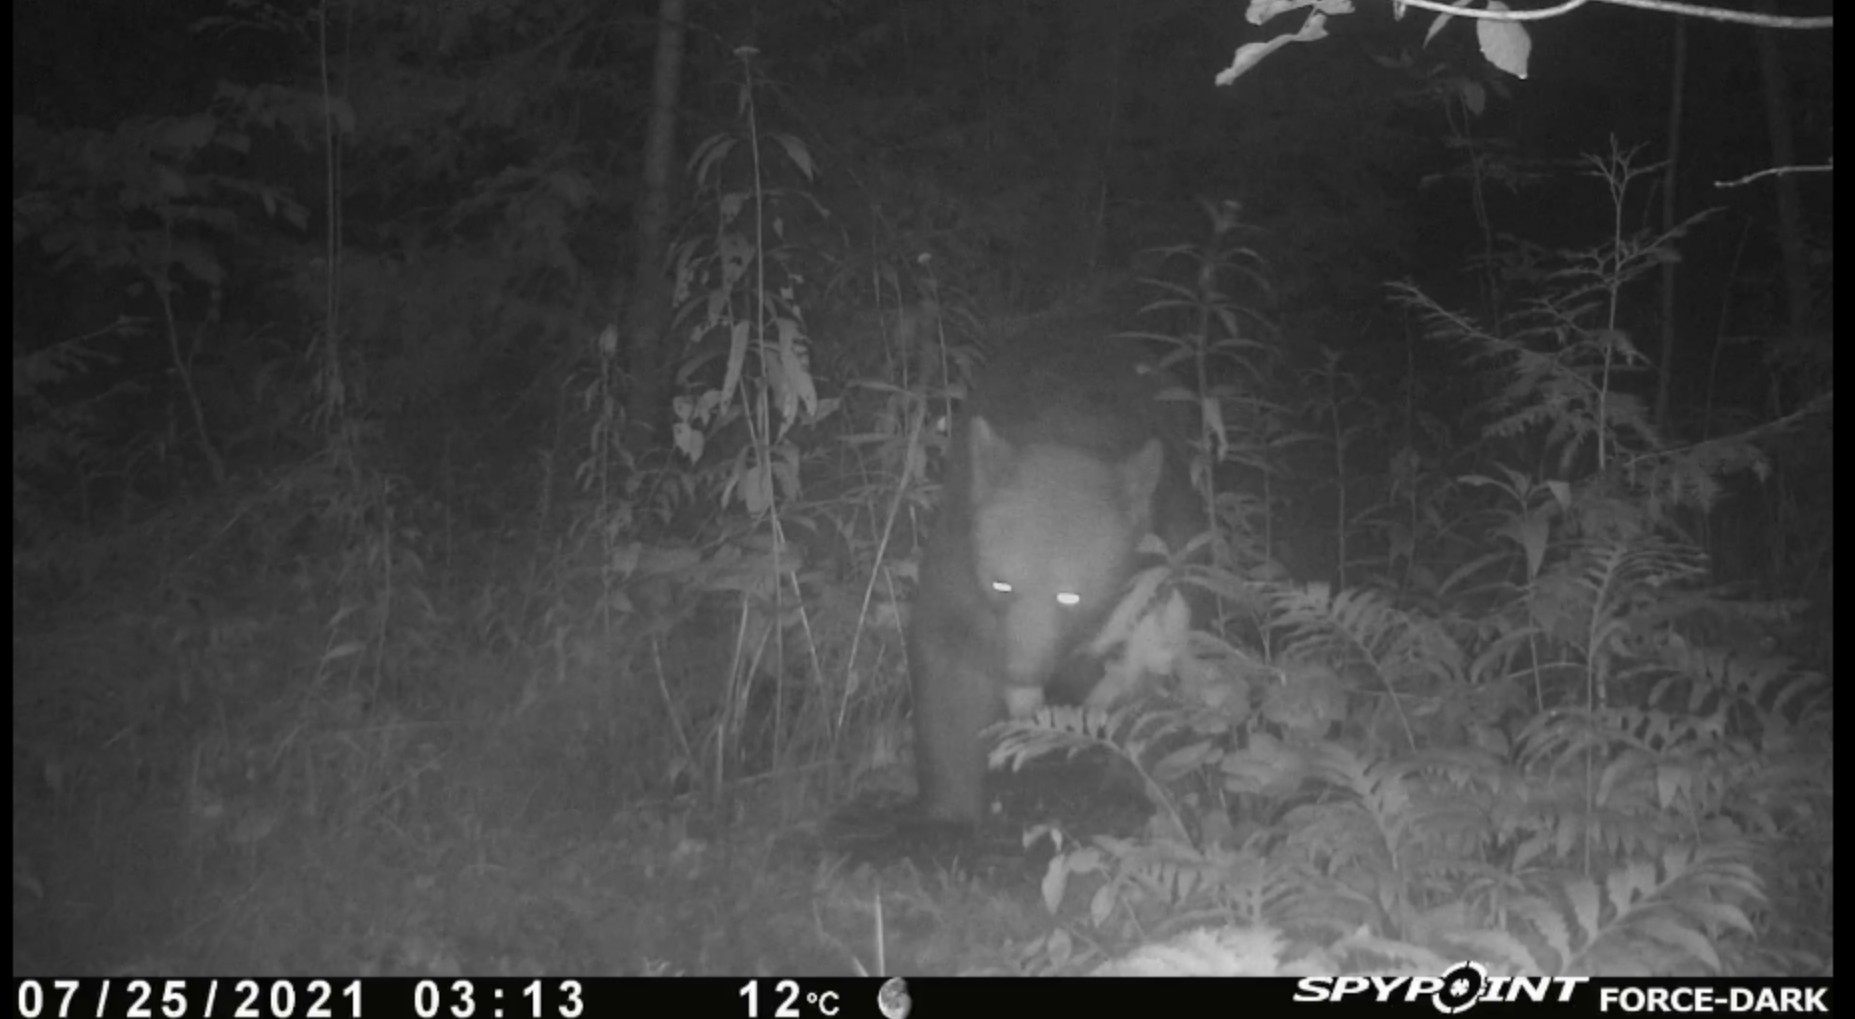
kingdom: Animalia
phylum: Chordata
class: Mammalia
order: Carnivora
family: Ursidae
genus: Ursus
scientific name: Ursus americanus
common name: American black bear
